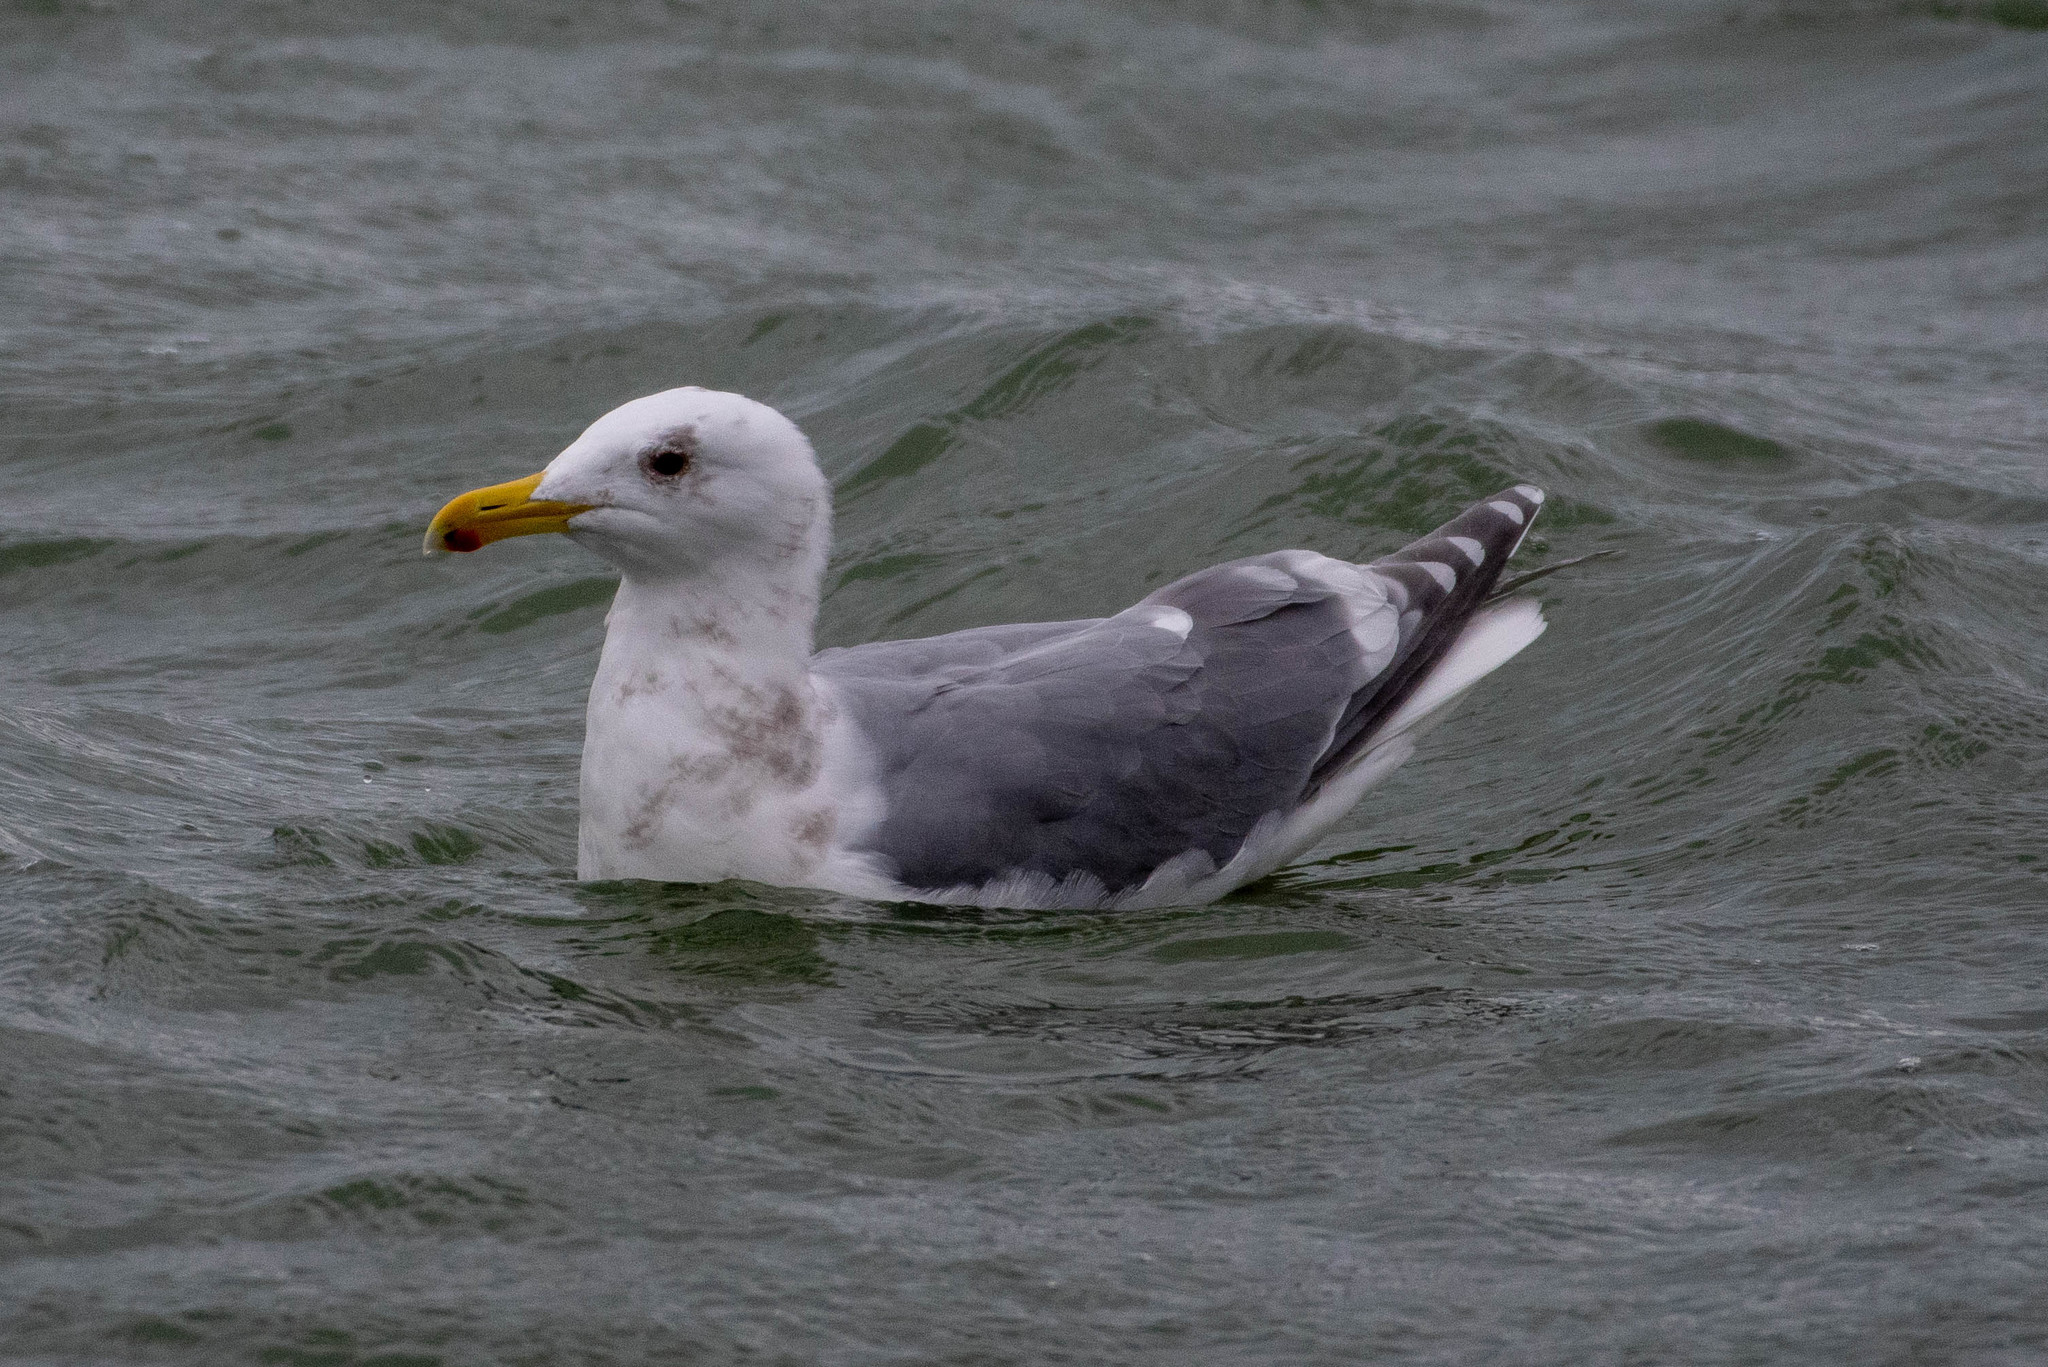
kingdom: Animalia
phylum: Chordata
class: Aves
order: Charadriiformes
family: Laridae
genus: Larus
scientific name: Larus
